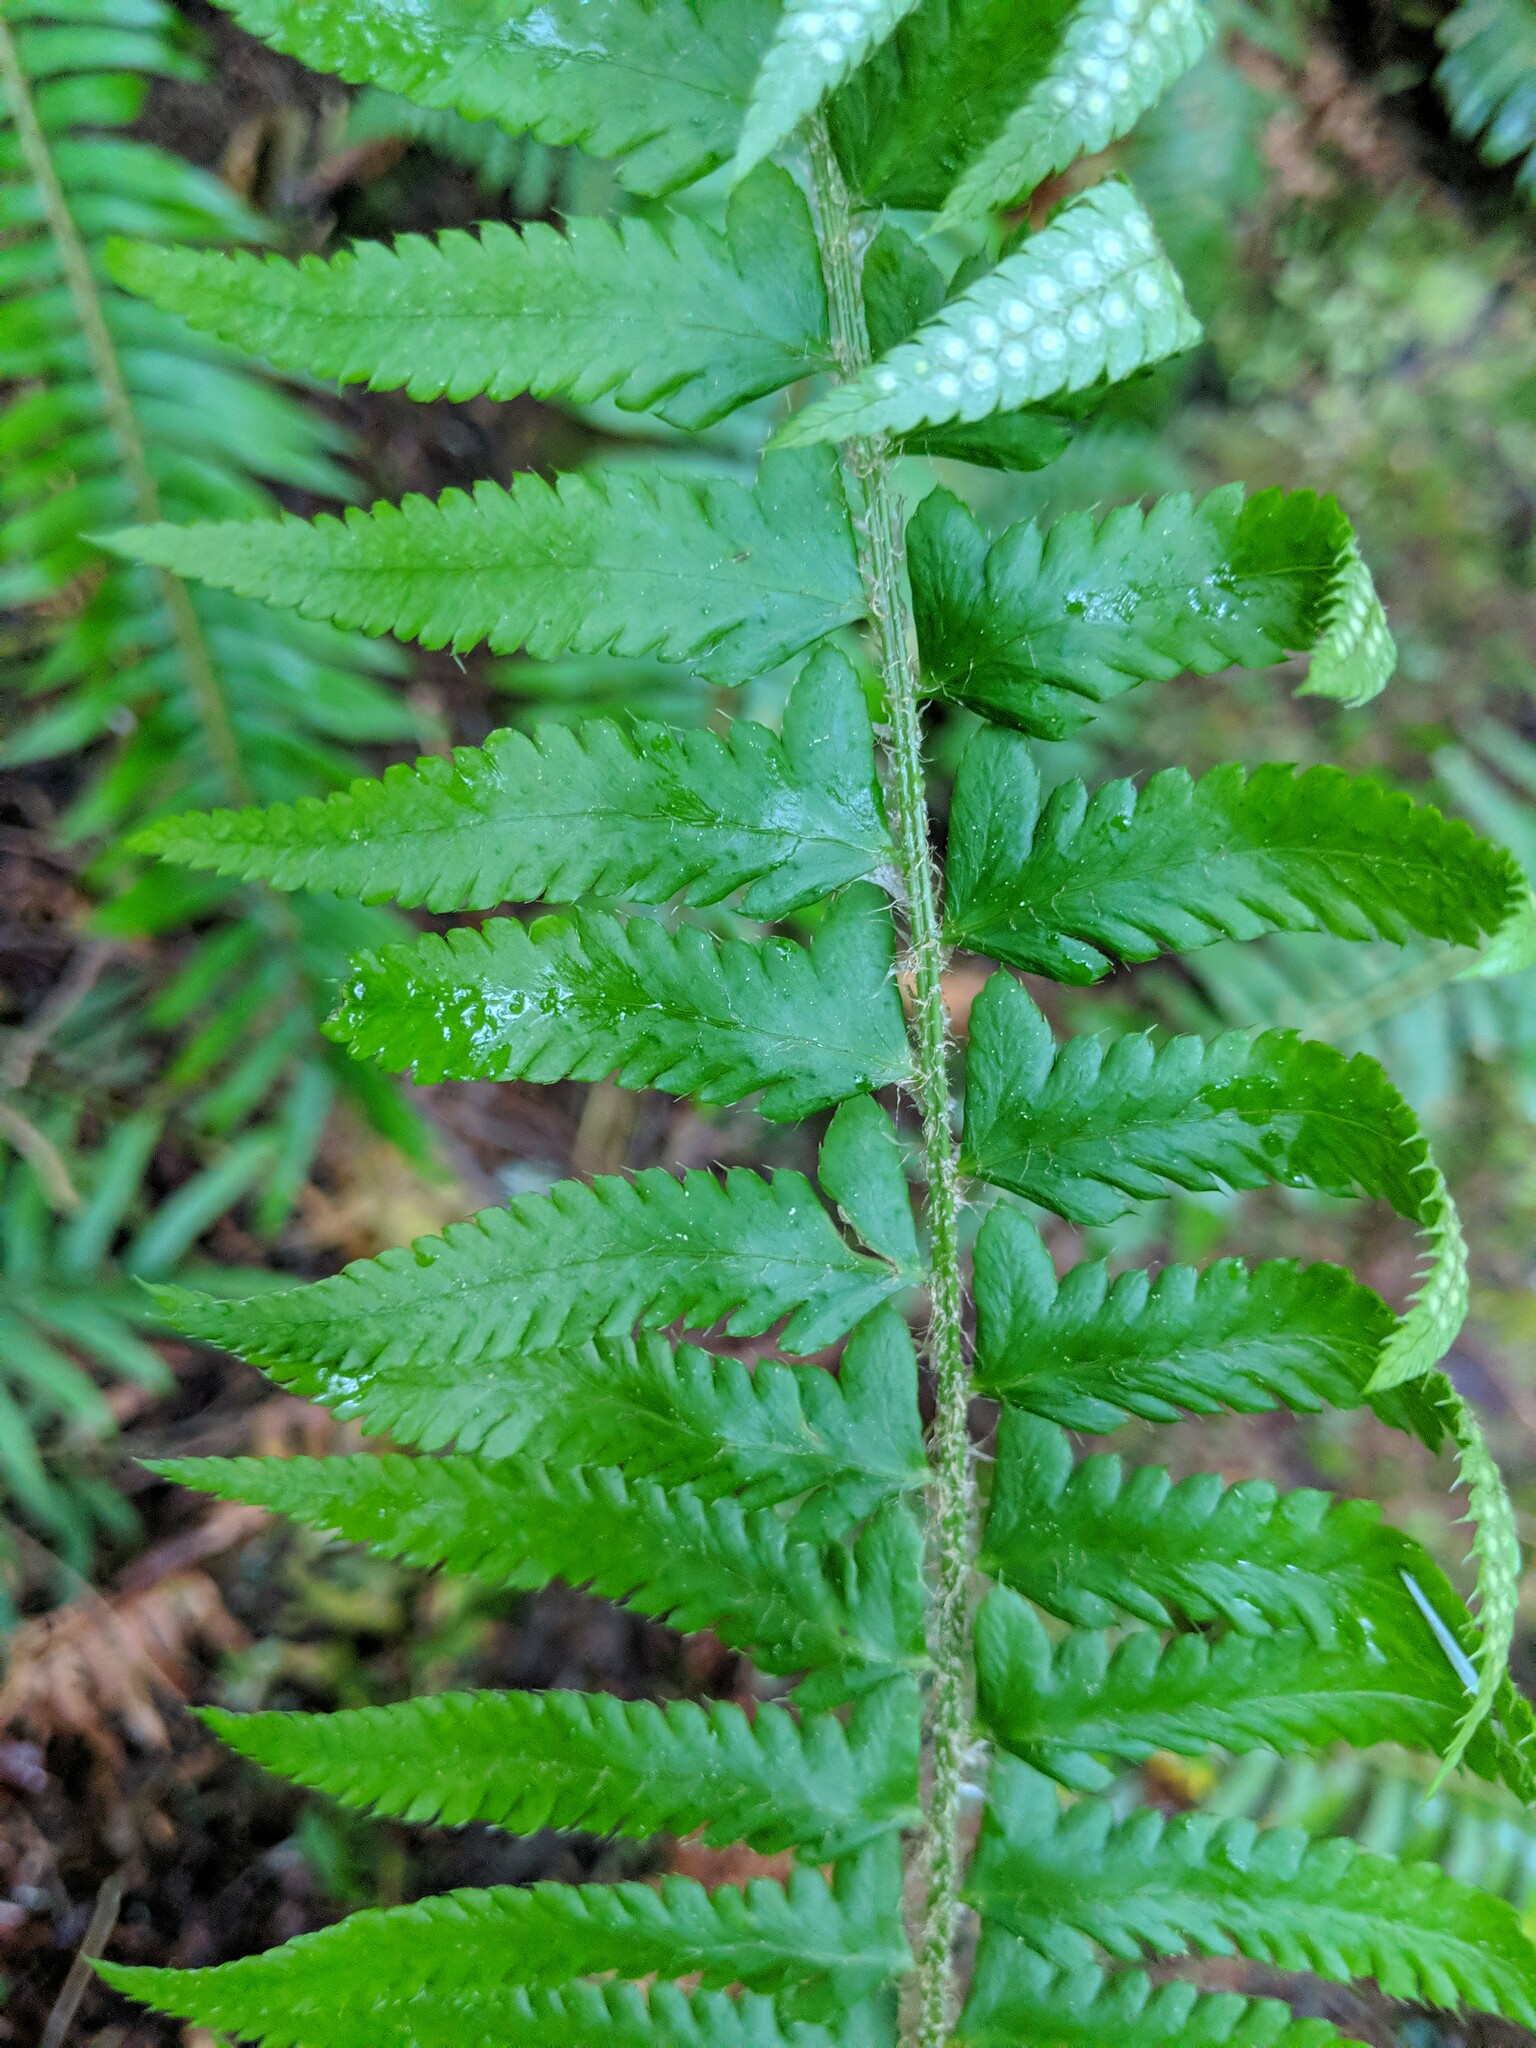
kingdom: Plantae
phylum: Tracheophyta
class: Polypodiopsida
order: Polypodiales
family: Dryopteridaceae
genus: Polystichum
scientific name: Polystichum
